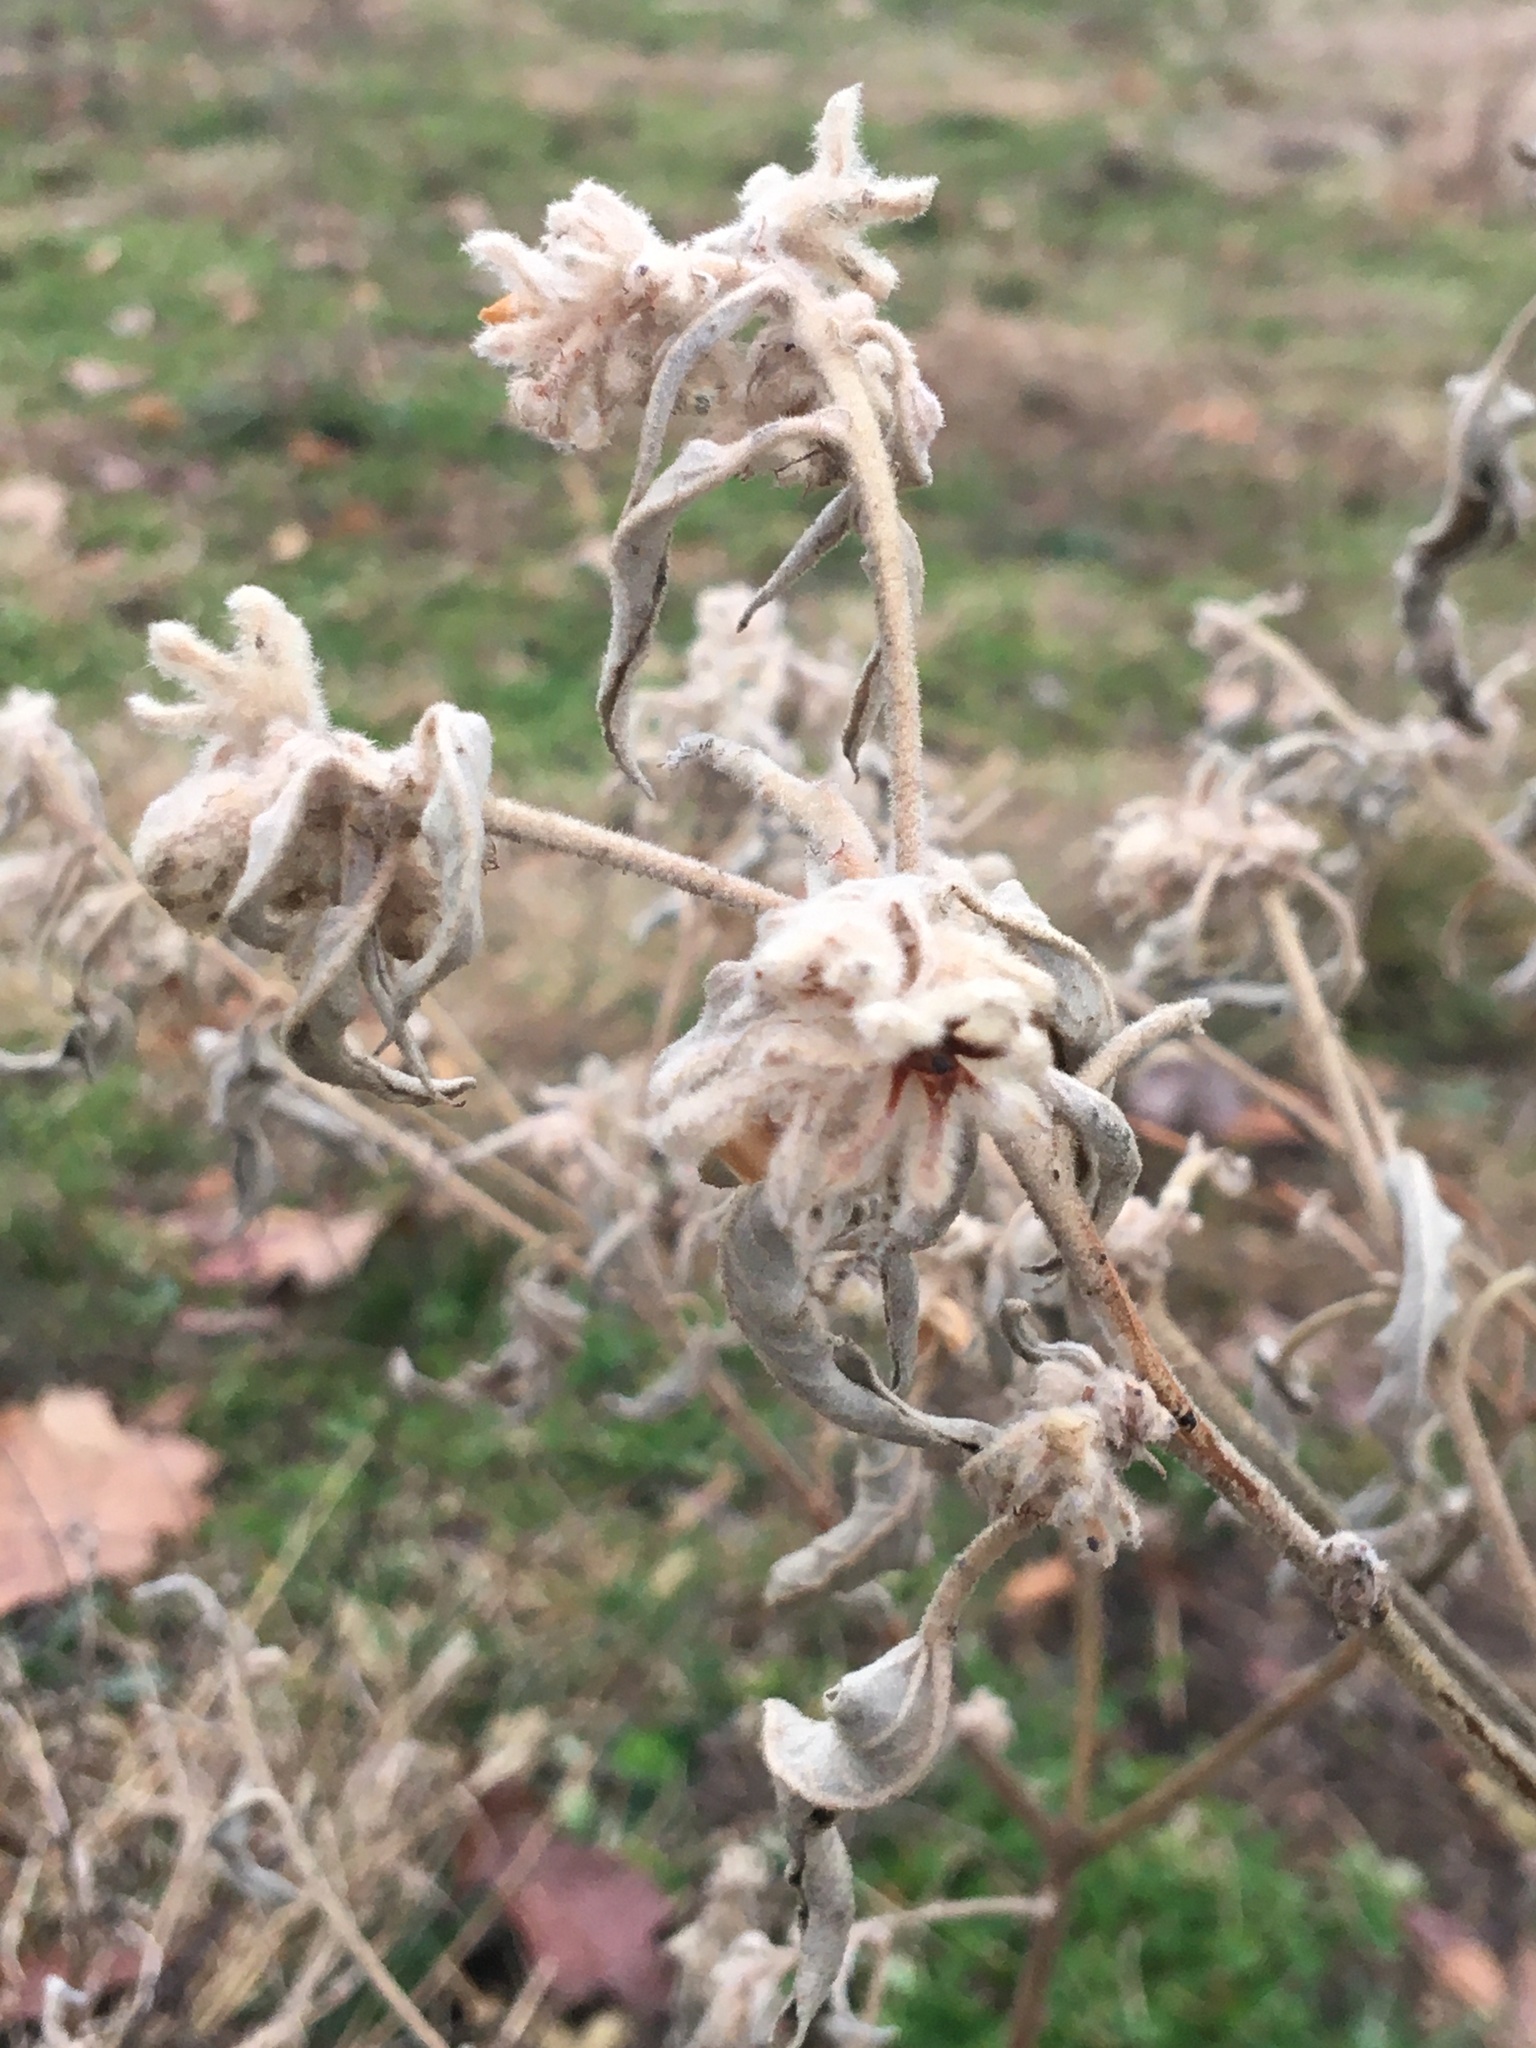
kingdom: Plantae
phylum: Tracheophyta
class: Magnoliopsida
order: Malpighiales
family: Euphorbiaceae
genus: Croton
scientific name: Croton lindheimeri
